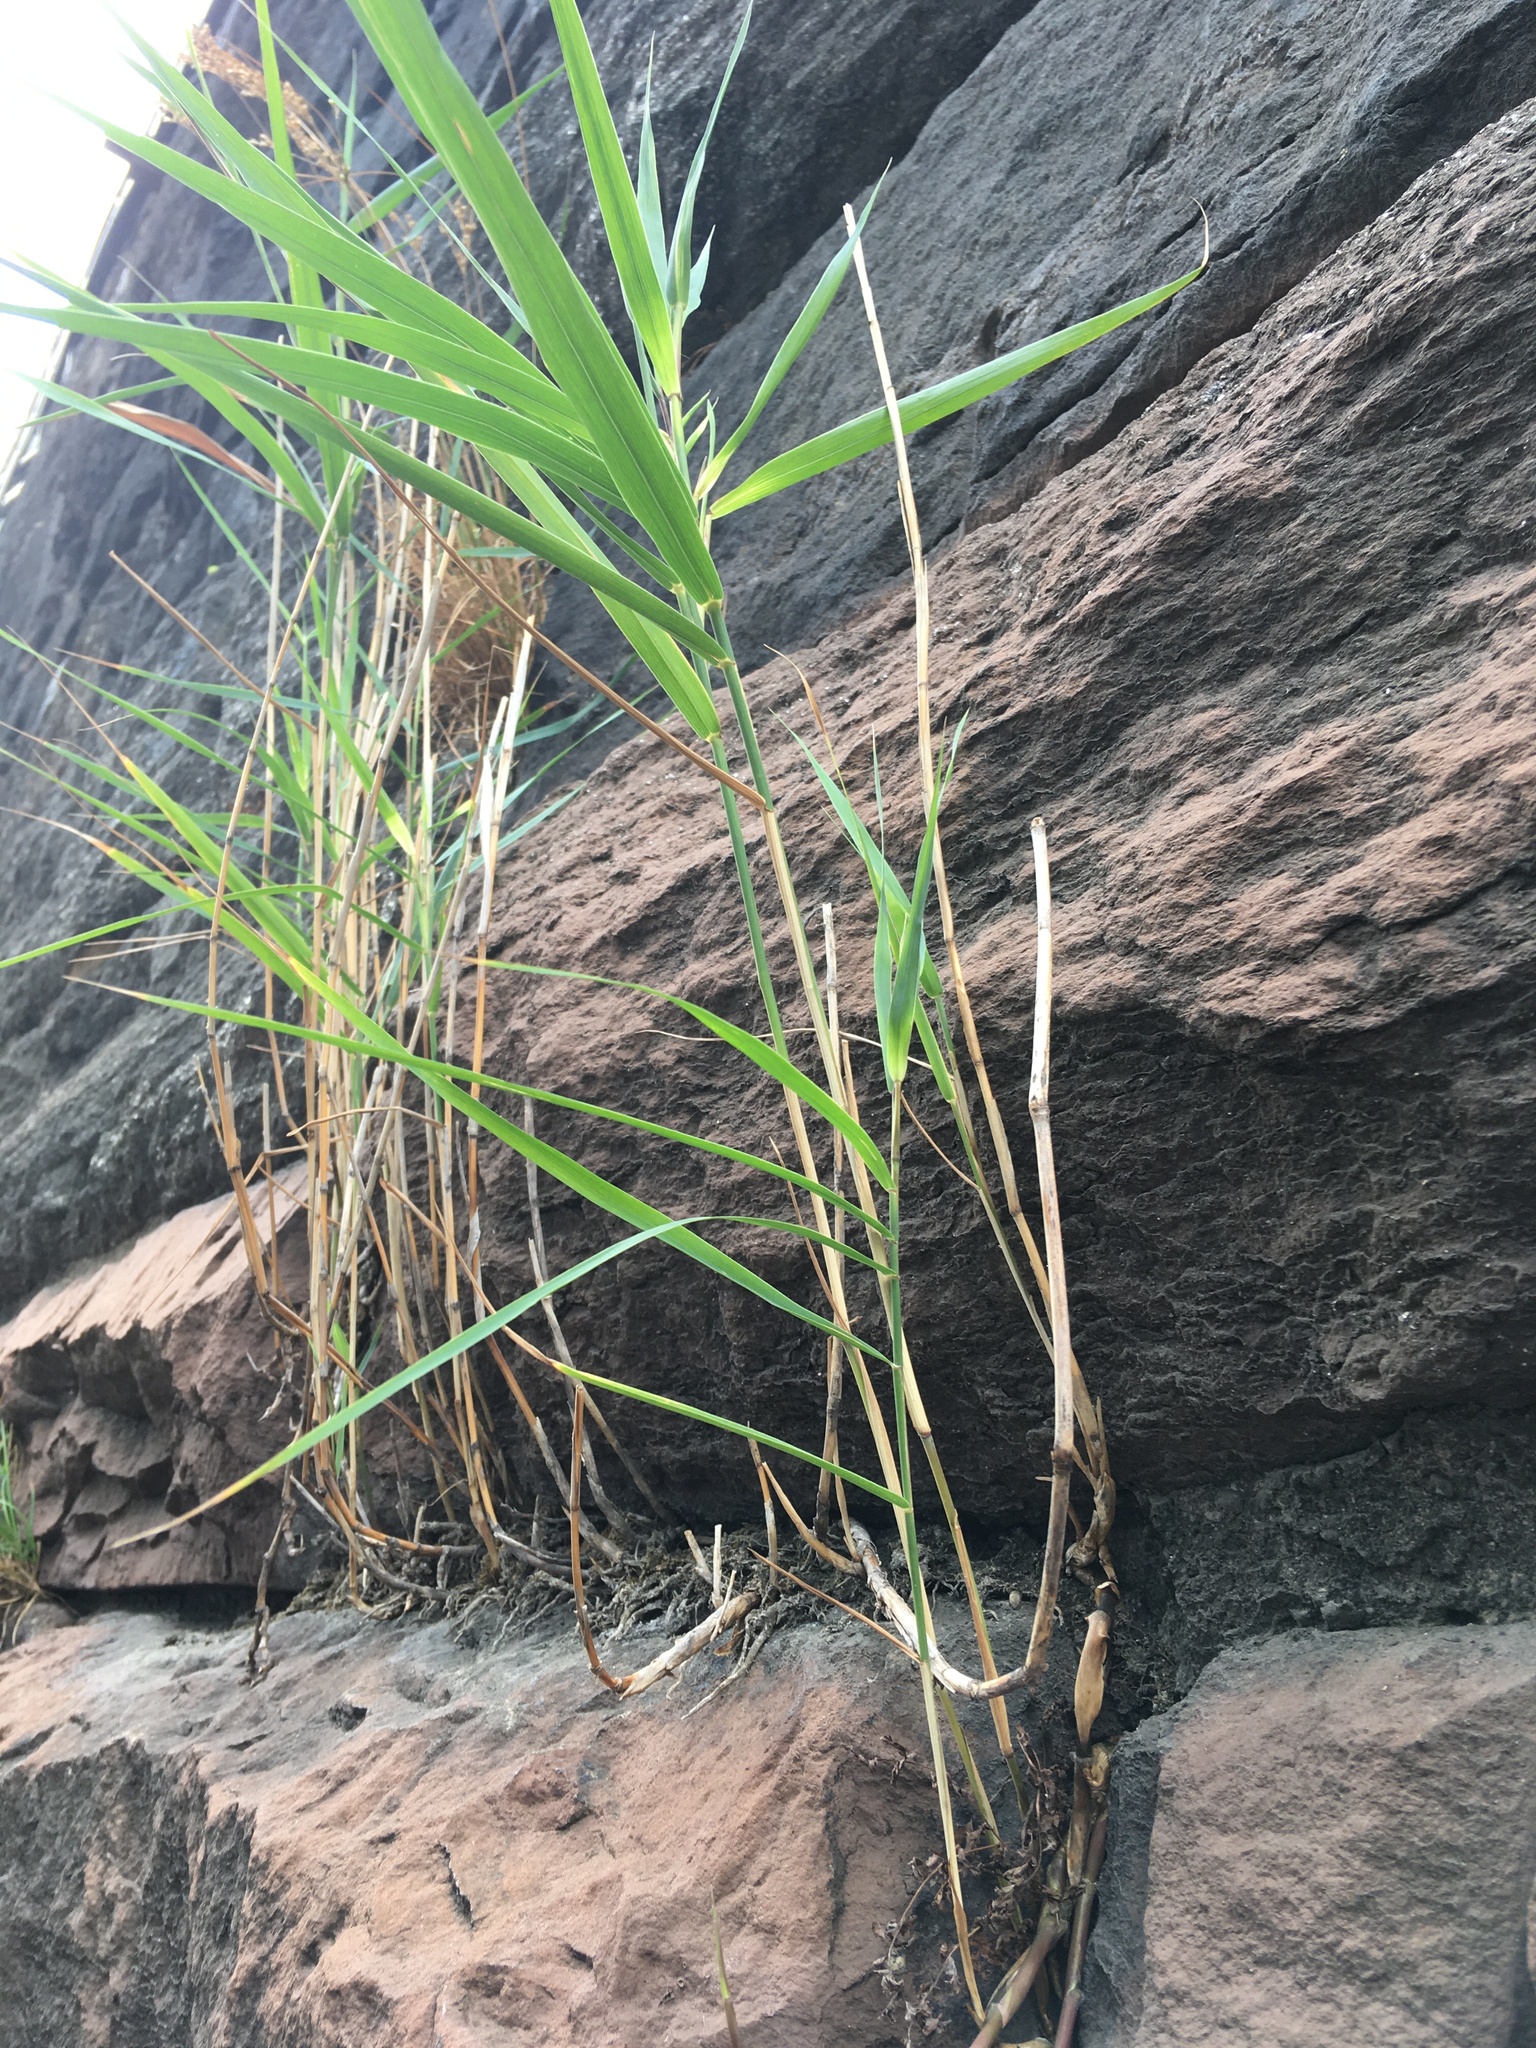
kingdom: Plantae
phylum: Tracheophyta
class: Liliopsida
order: Poales
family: Poaceae
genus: Phragmites
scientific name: Phragmites australis
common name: Common reed
